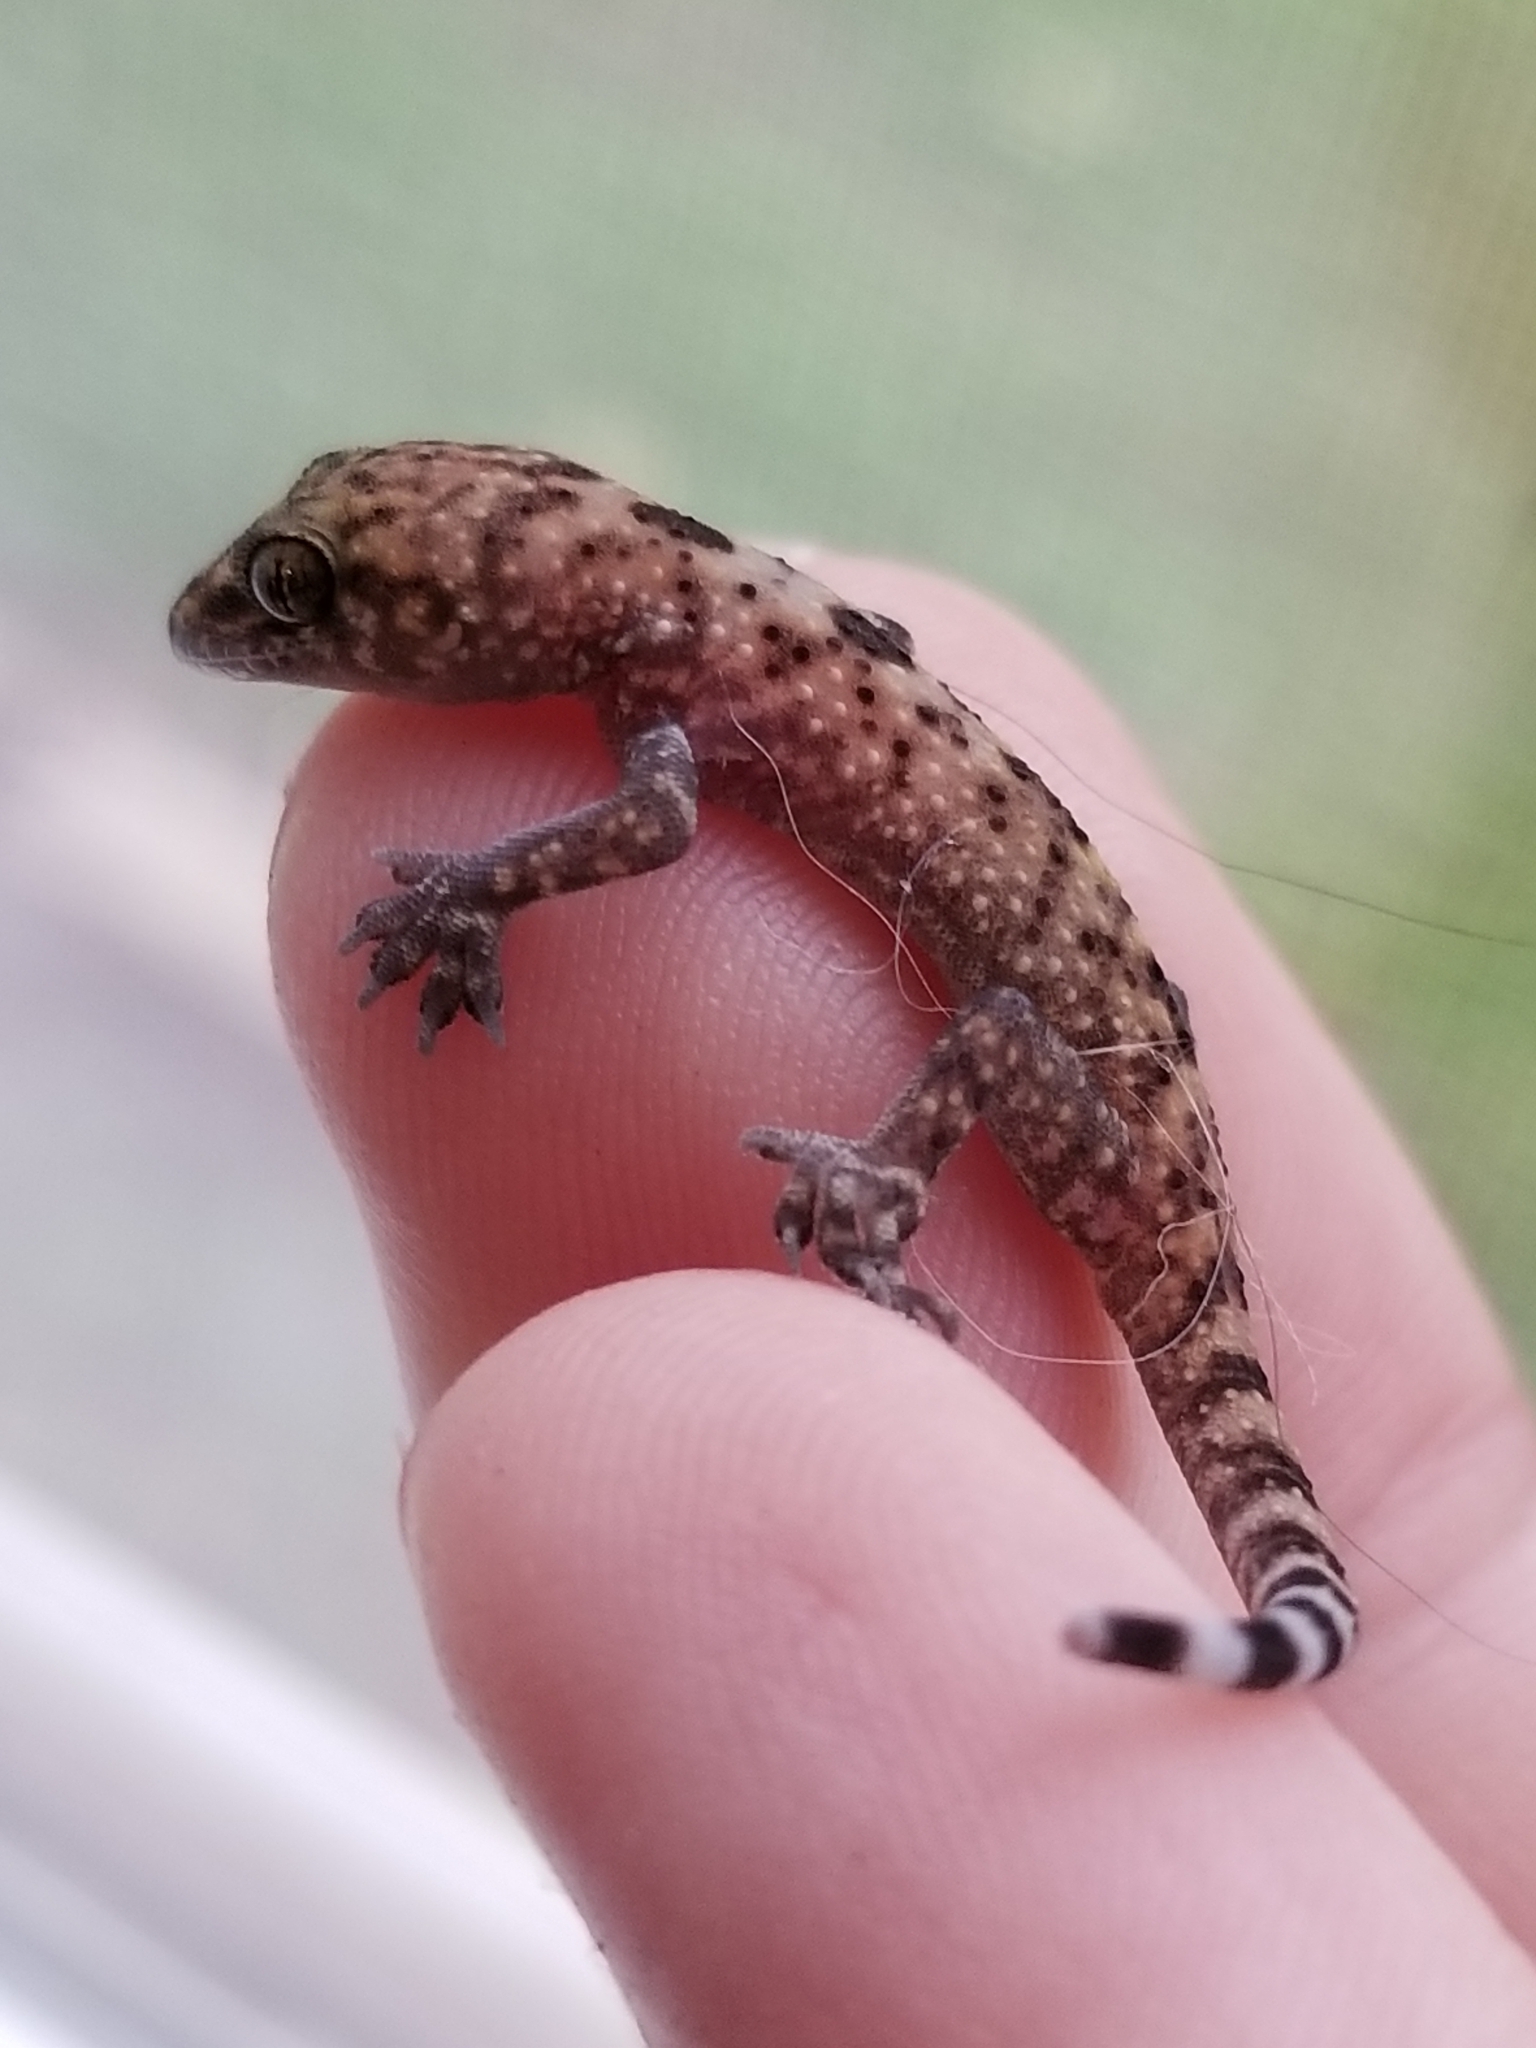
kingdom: Animalia
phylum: Chordata
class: Squamata
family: Gekkonidae
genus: Hemidactylus
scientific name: Hemidactylus turcicus
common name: Turkish gecko
